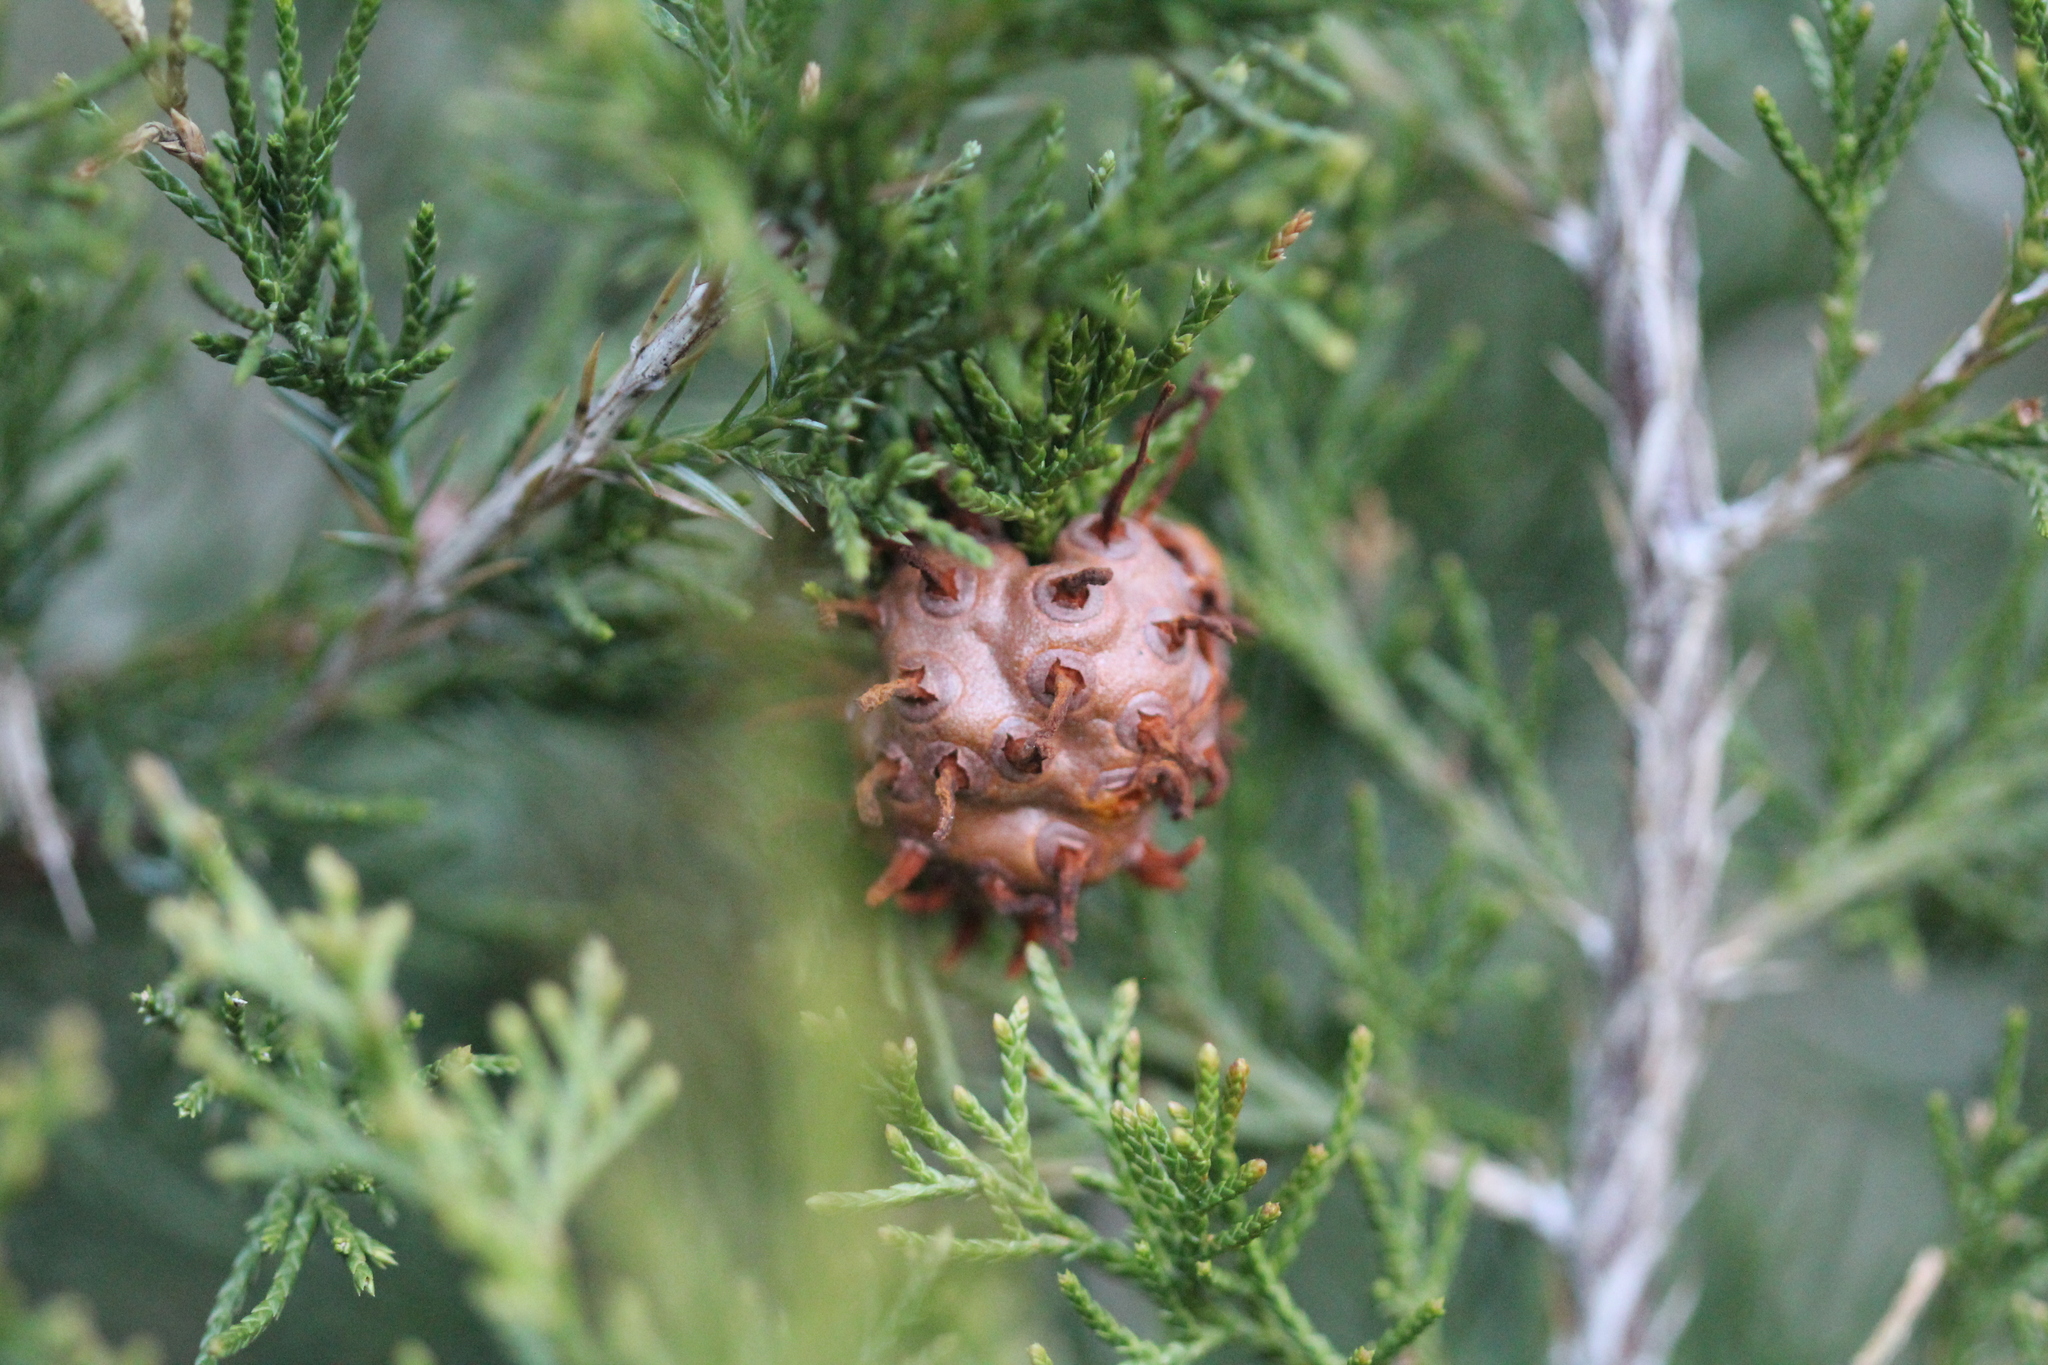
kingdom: Fungi
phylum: Basidiomycota
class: Pucciniomycetes
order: Pucciniales
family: Gymnosporangiaceae
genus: Gymnosporangium
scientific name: Gymnosporangium juniperi-virginianae
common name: Juniper-apple rust
